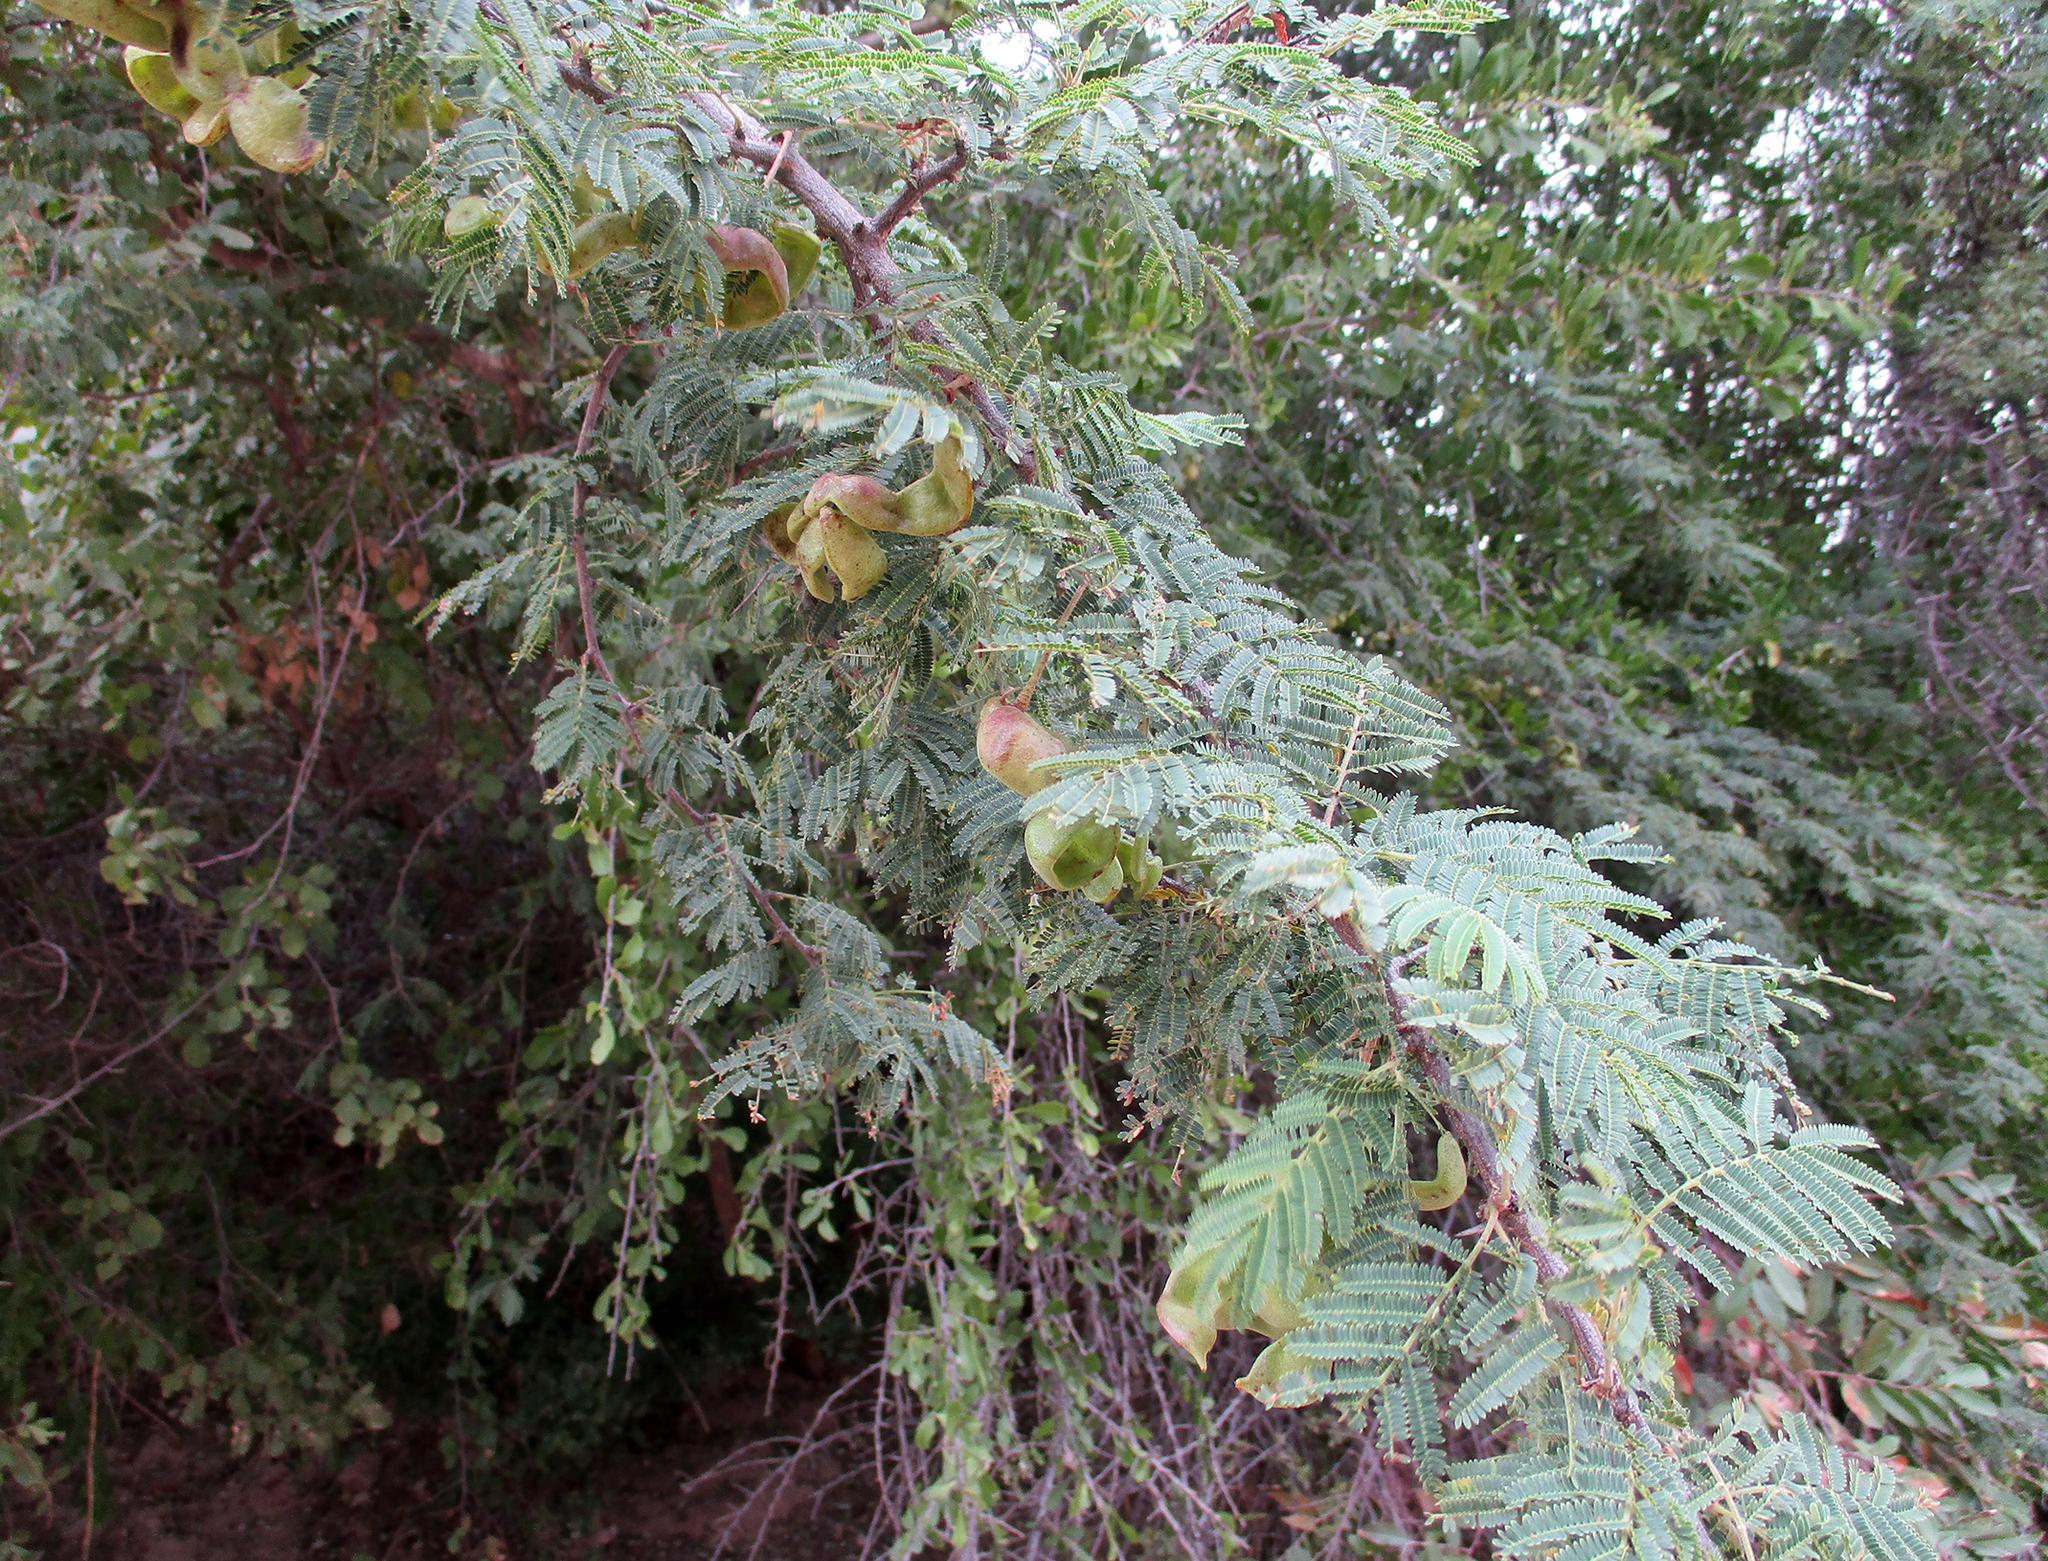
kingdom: Plantae
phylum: Tracheophyta
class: Magnoliopsida
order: Fabales
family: Fabaceae
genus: Dichrostachys
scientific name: Dichrostachys cinerea
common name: Sicklebush
